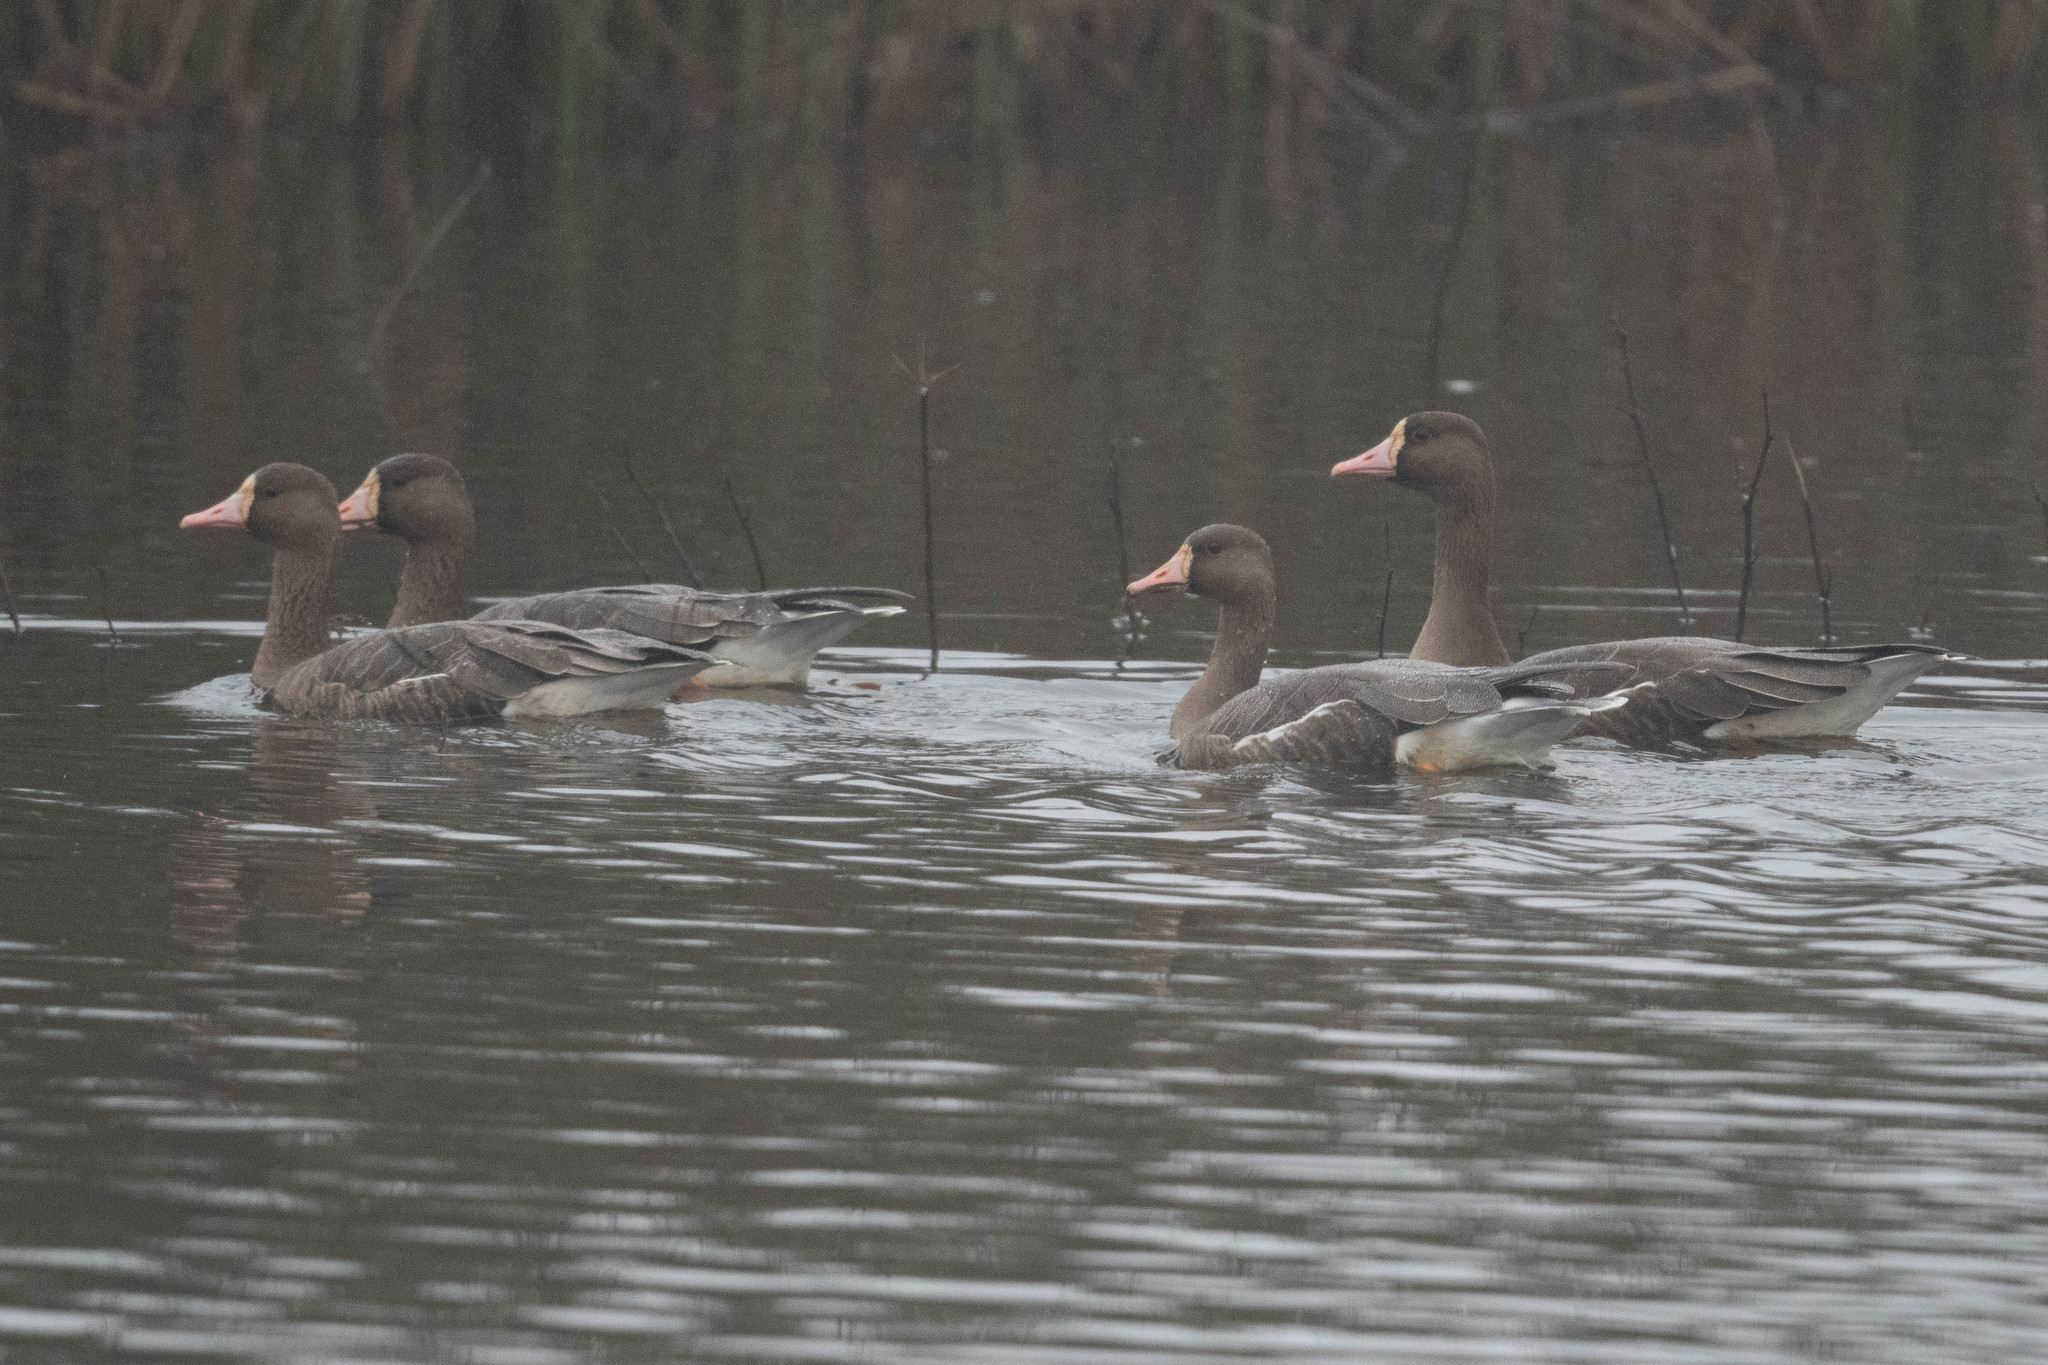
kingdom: Animalia
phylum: Chordata
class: Aves
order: Anseriformes
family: Anatidae
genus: Anser
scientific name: Anser albifrons
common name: Greater white-fronted goose
